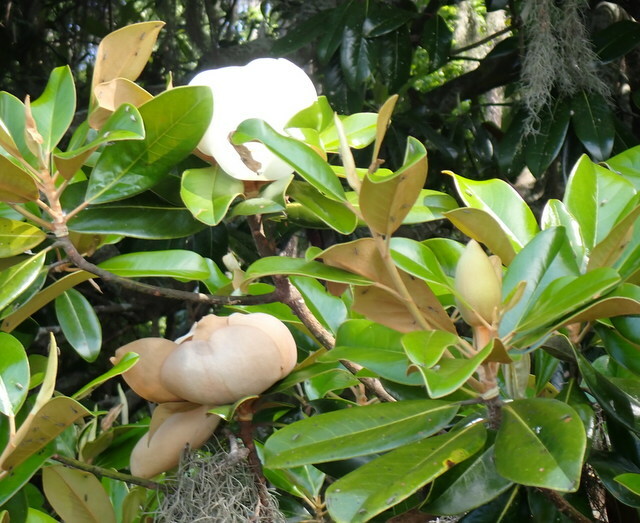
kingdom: Plantae
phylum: Tracheophyta
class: Magnoliopsida
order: Magnoliales
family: Magnoliaceae
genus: Magnolia
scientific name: Magnolia grandiflora
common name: Southern magnolia
